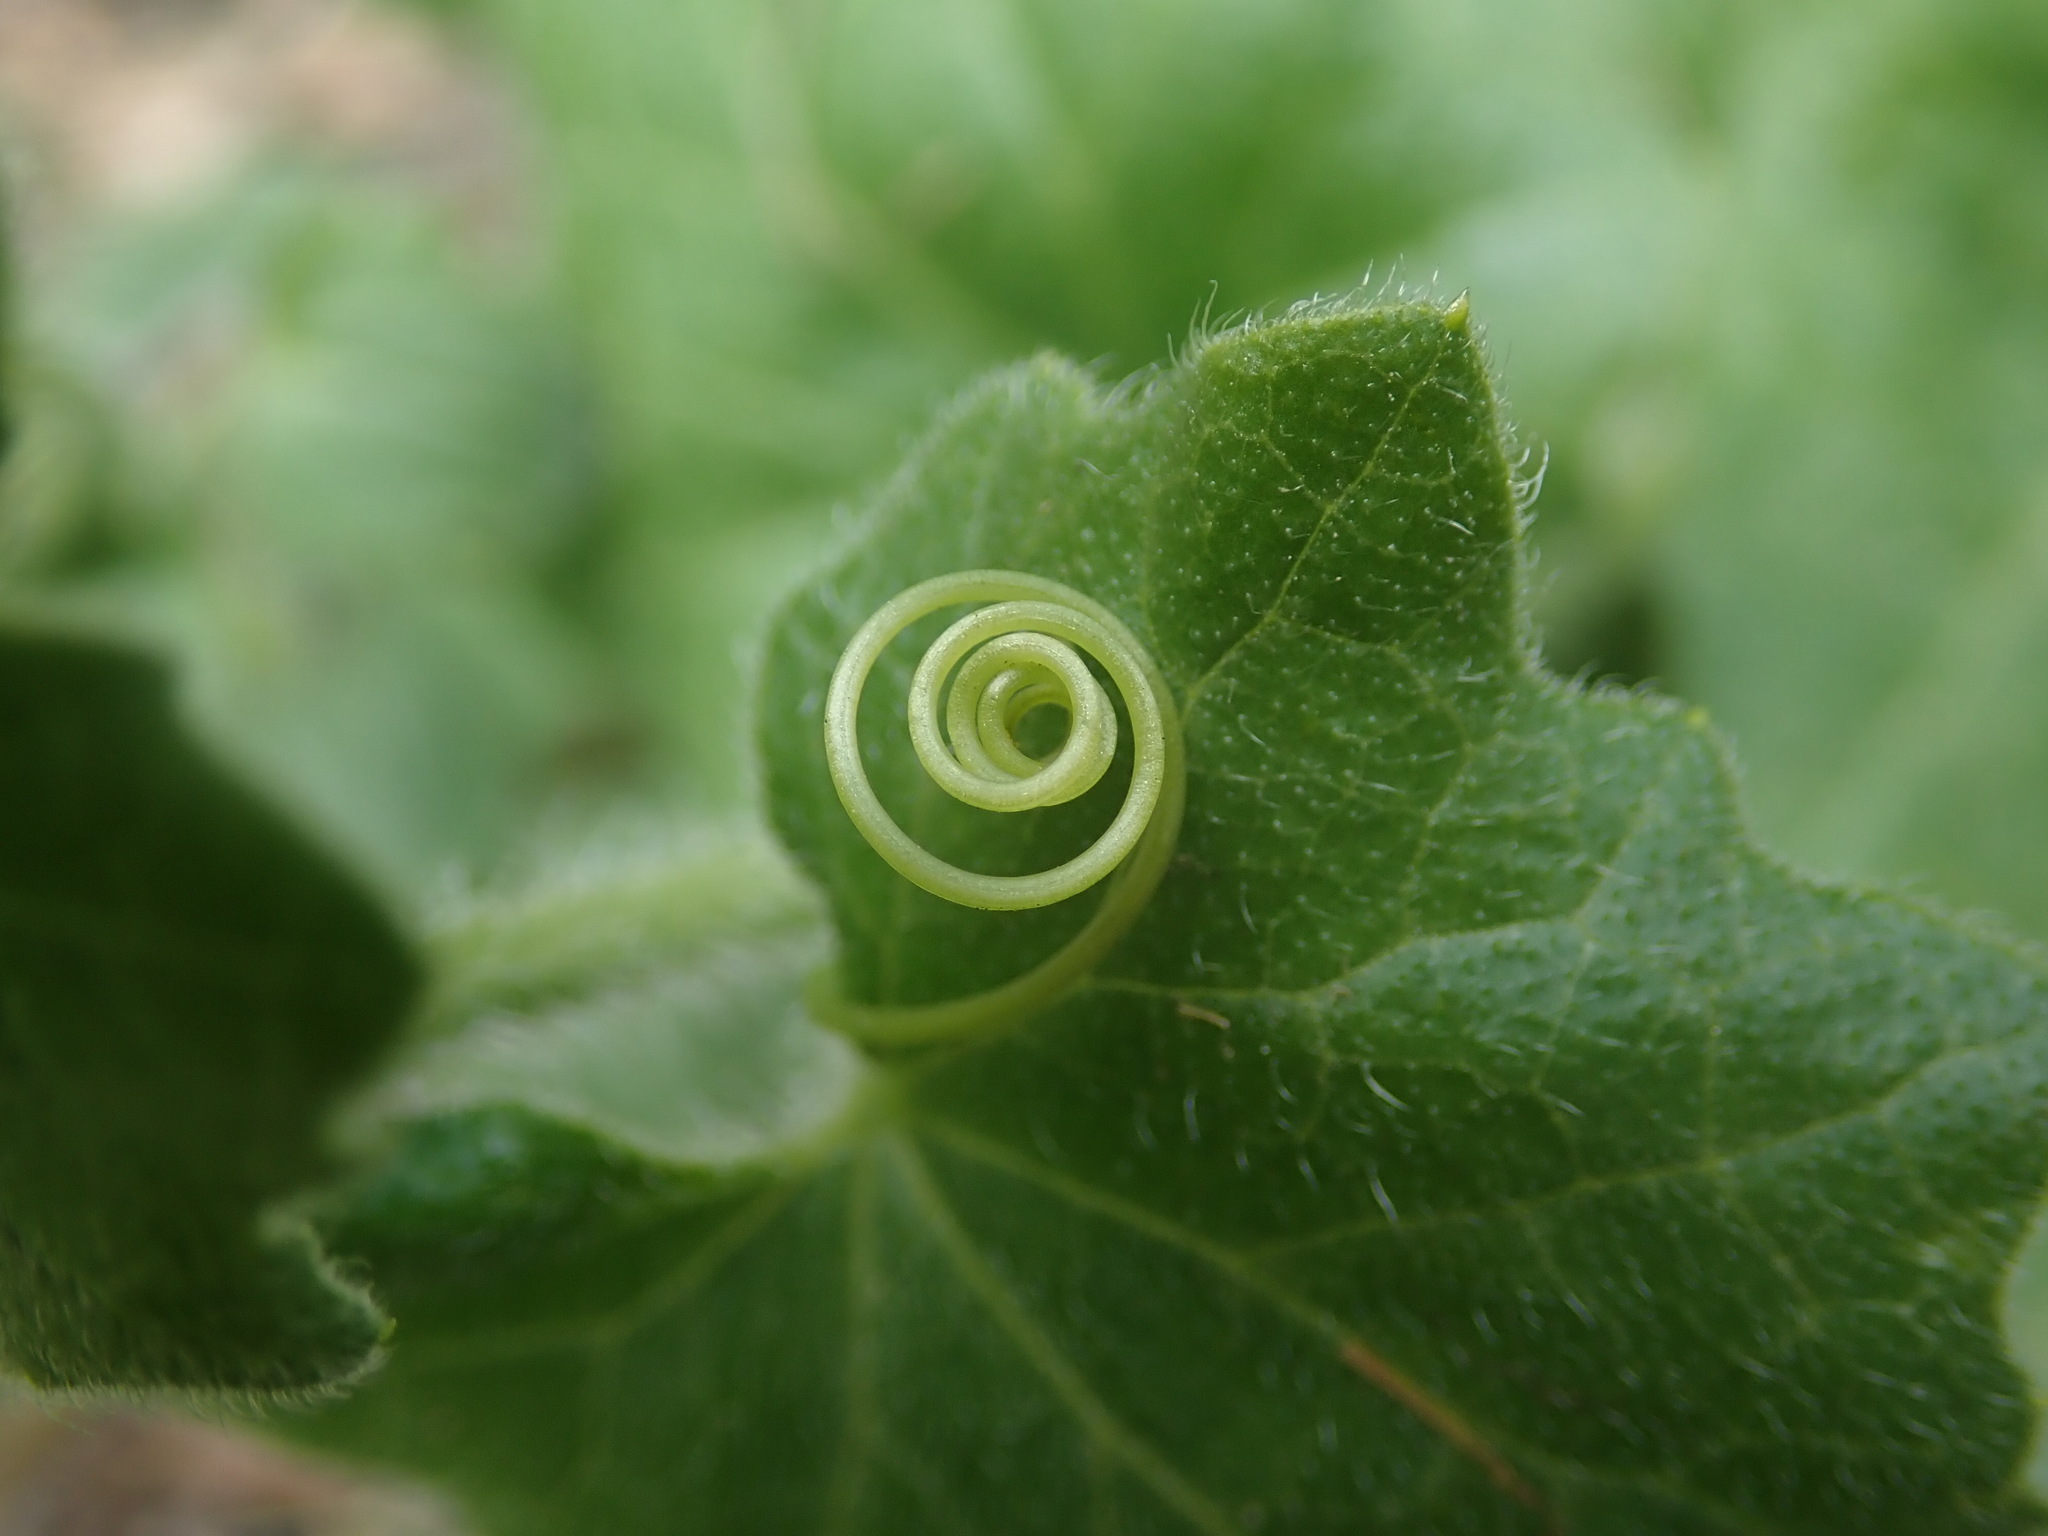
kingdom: Plantae
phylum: Tracheophyta
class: Magnoliopsida
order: Cucurbitales
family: Cucurbitaceae
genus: Bryonia
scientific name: Bryonia cretica
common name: Cretan bryony
